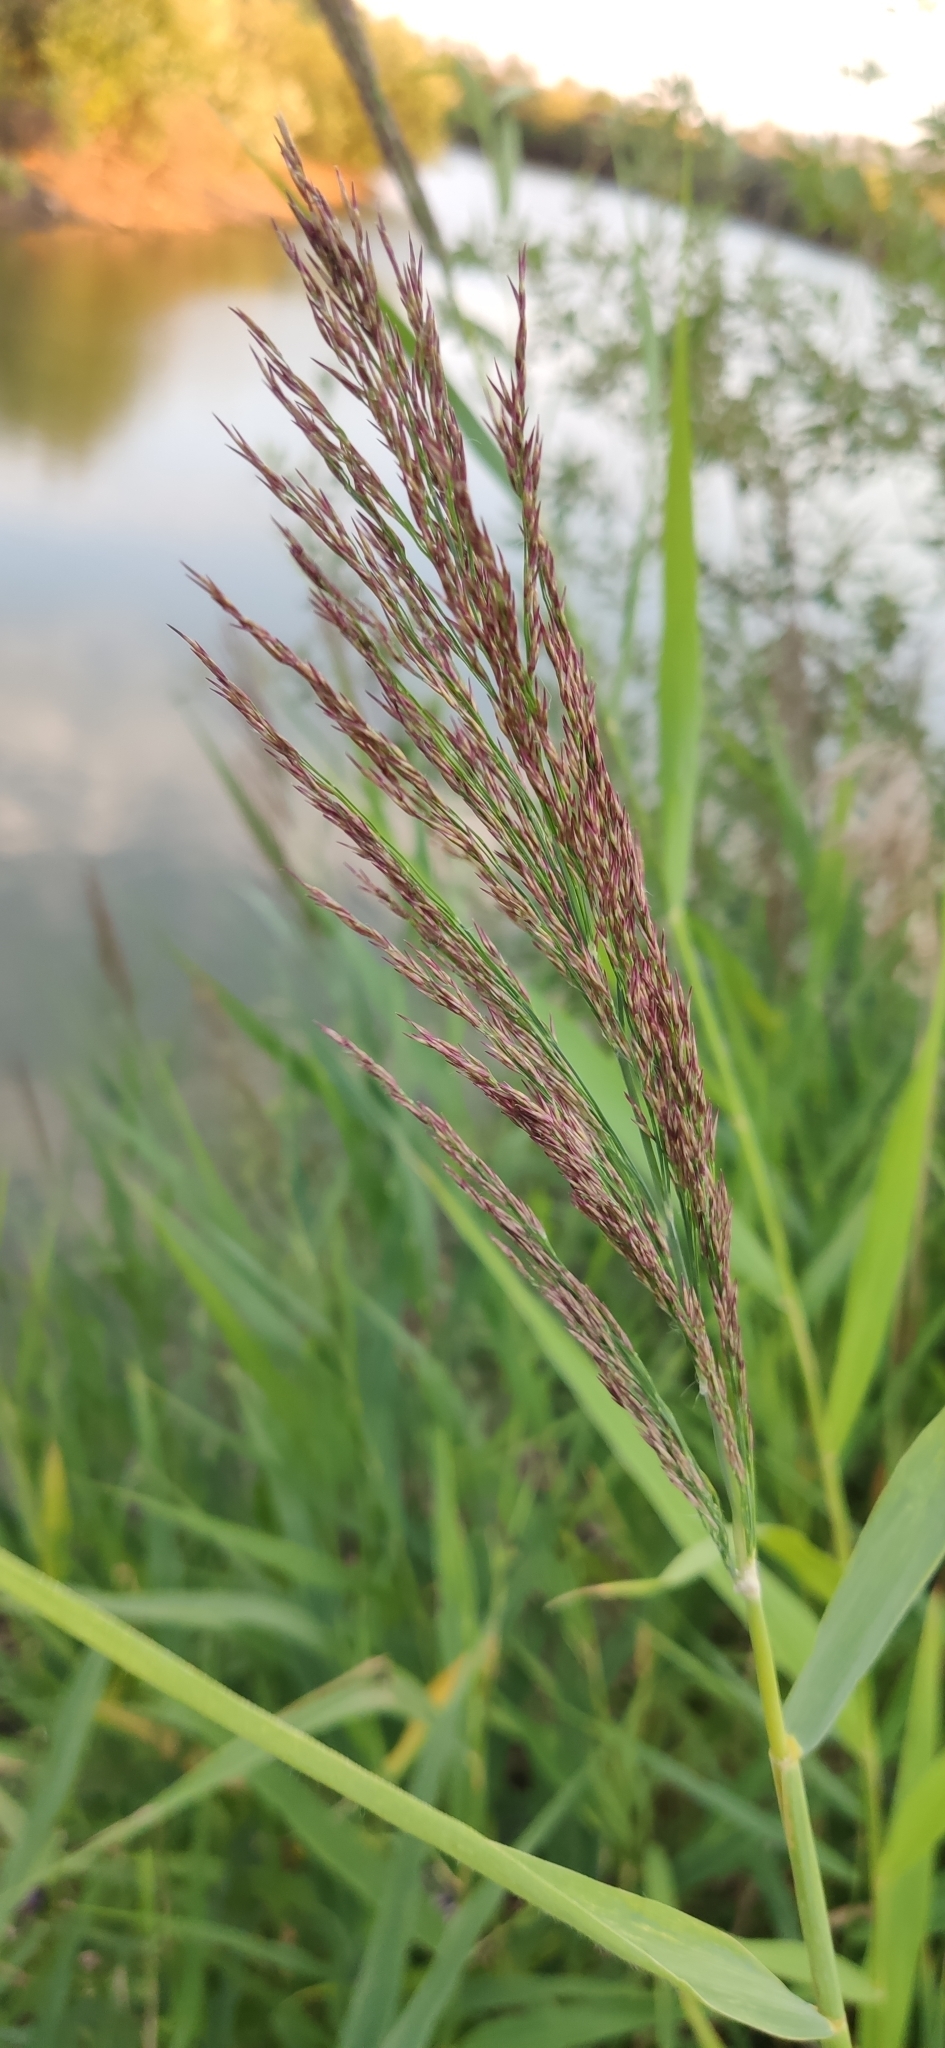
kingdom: Plantae
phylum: Tracheophyta
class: Liliopsida
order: Poales
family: Poaceae
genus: Phragmites
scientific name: Phragmites australis
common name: Common reed
